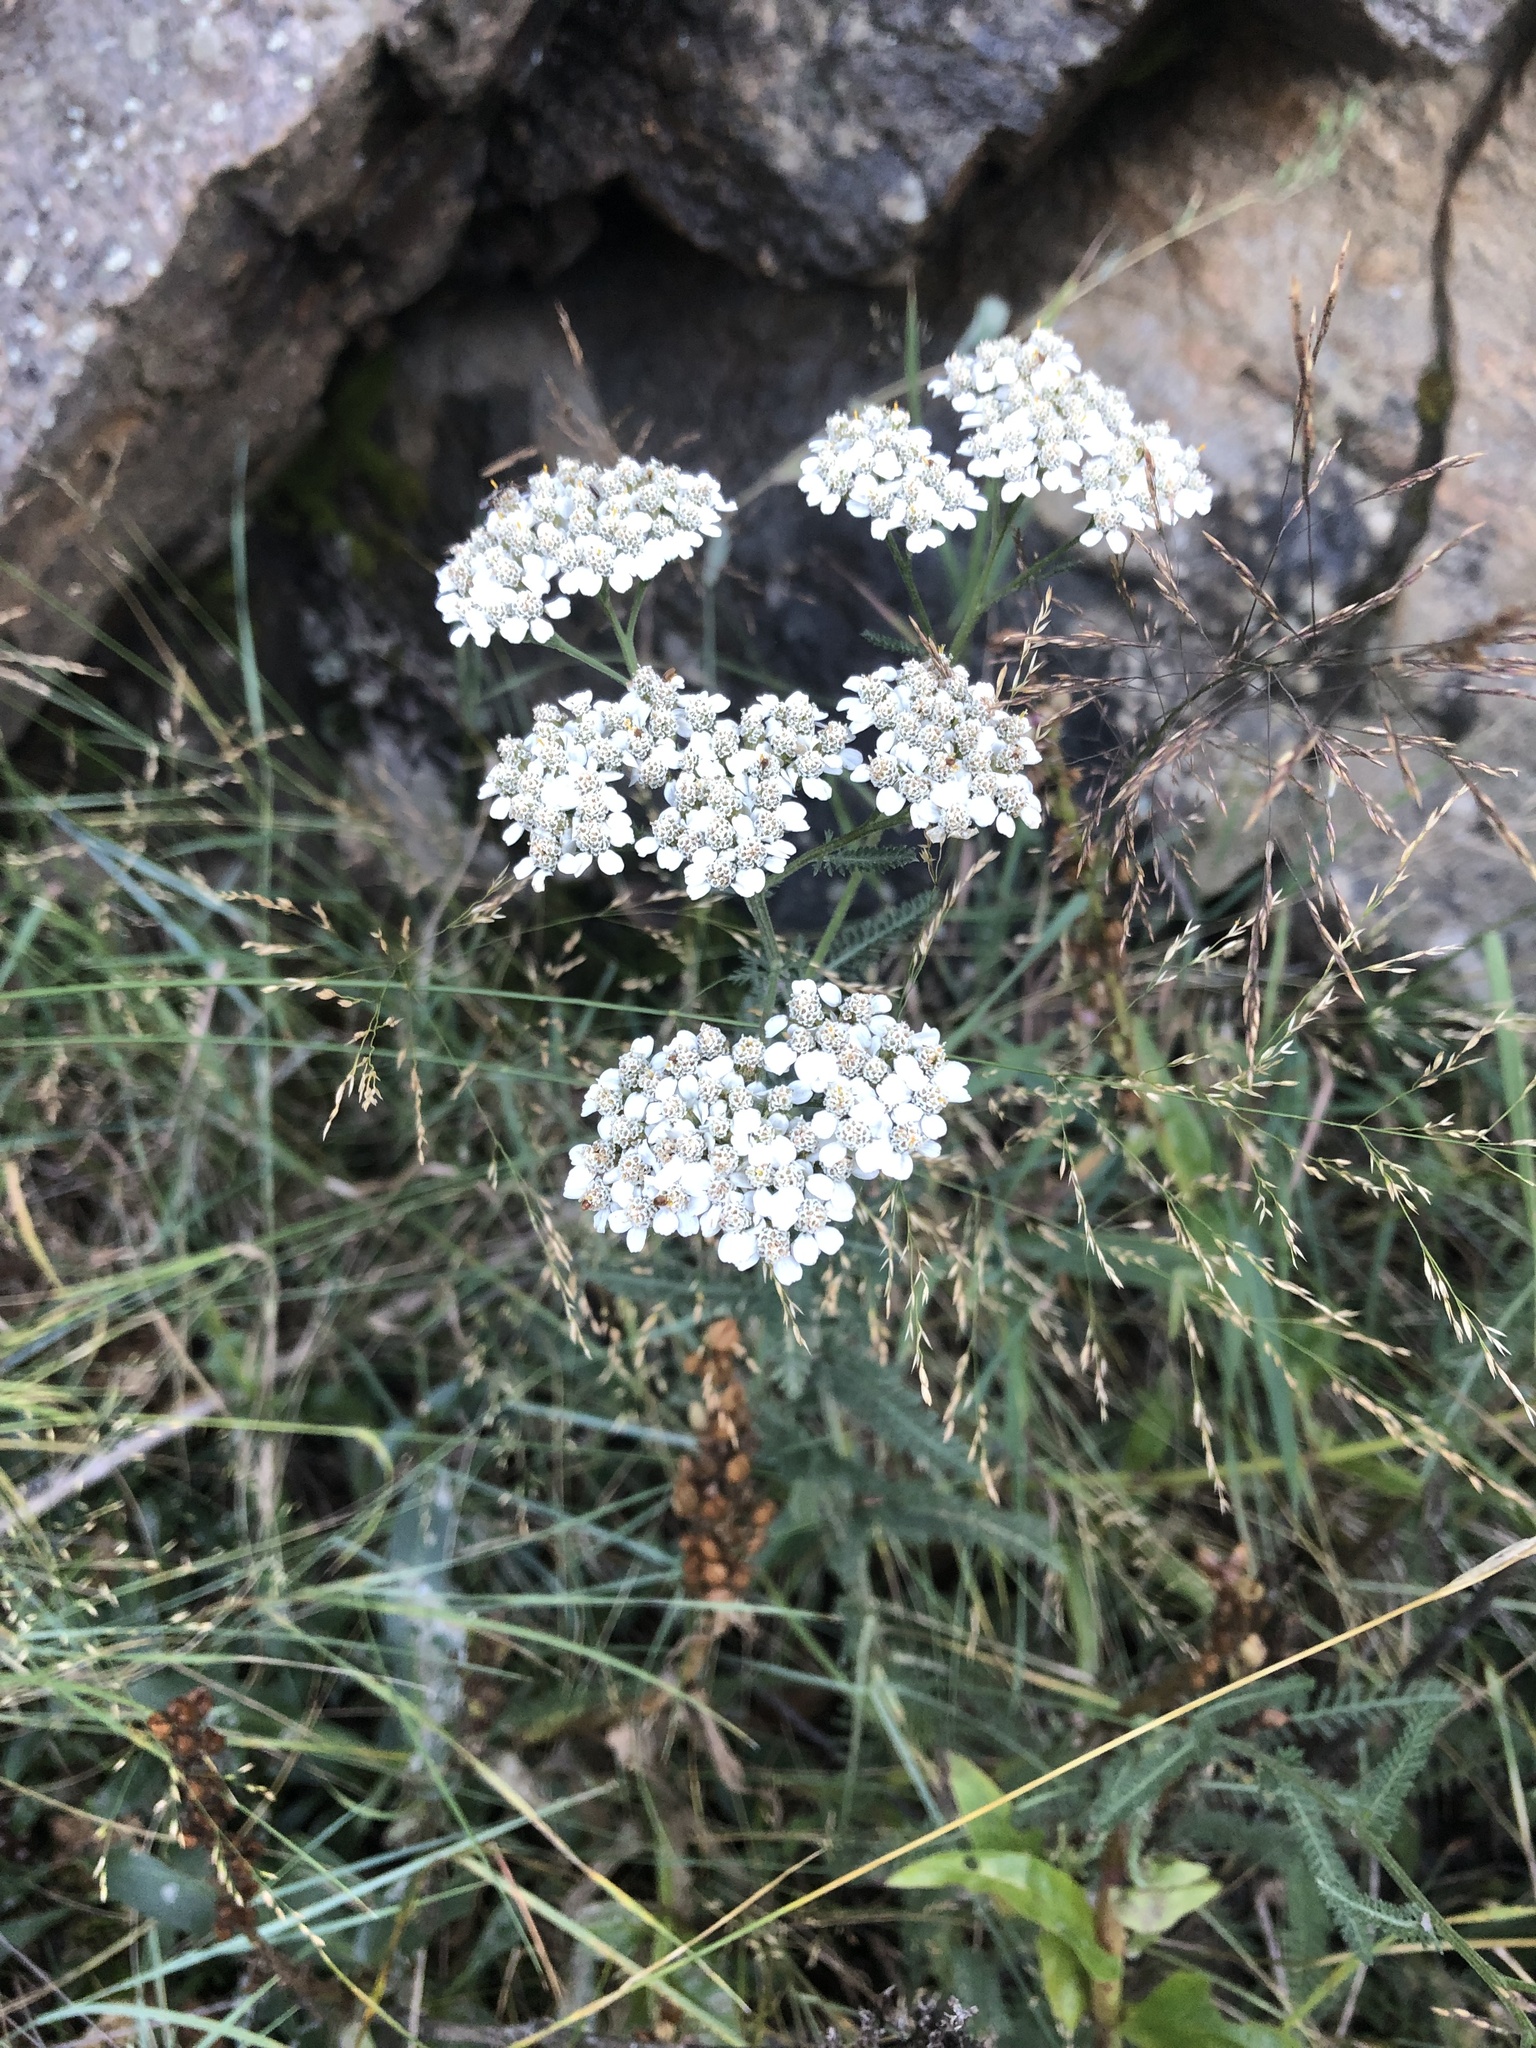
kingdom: Plantae
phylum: Tracheophyta
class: Magnoliopsida
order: Asterales
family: Asteraceae
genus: Achillea
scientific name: Achillea millefolium
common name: Yarrow
